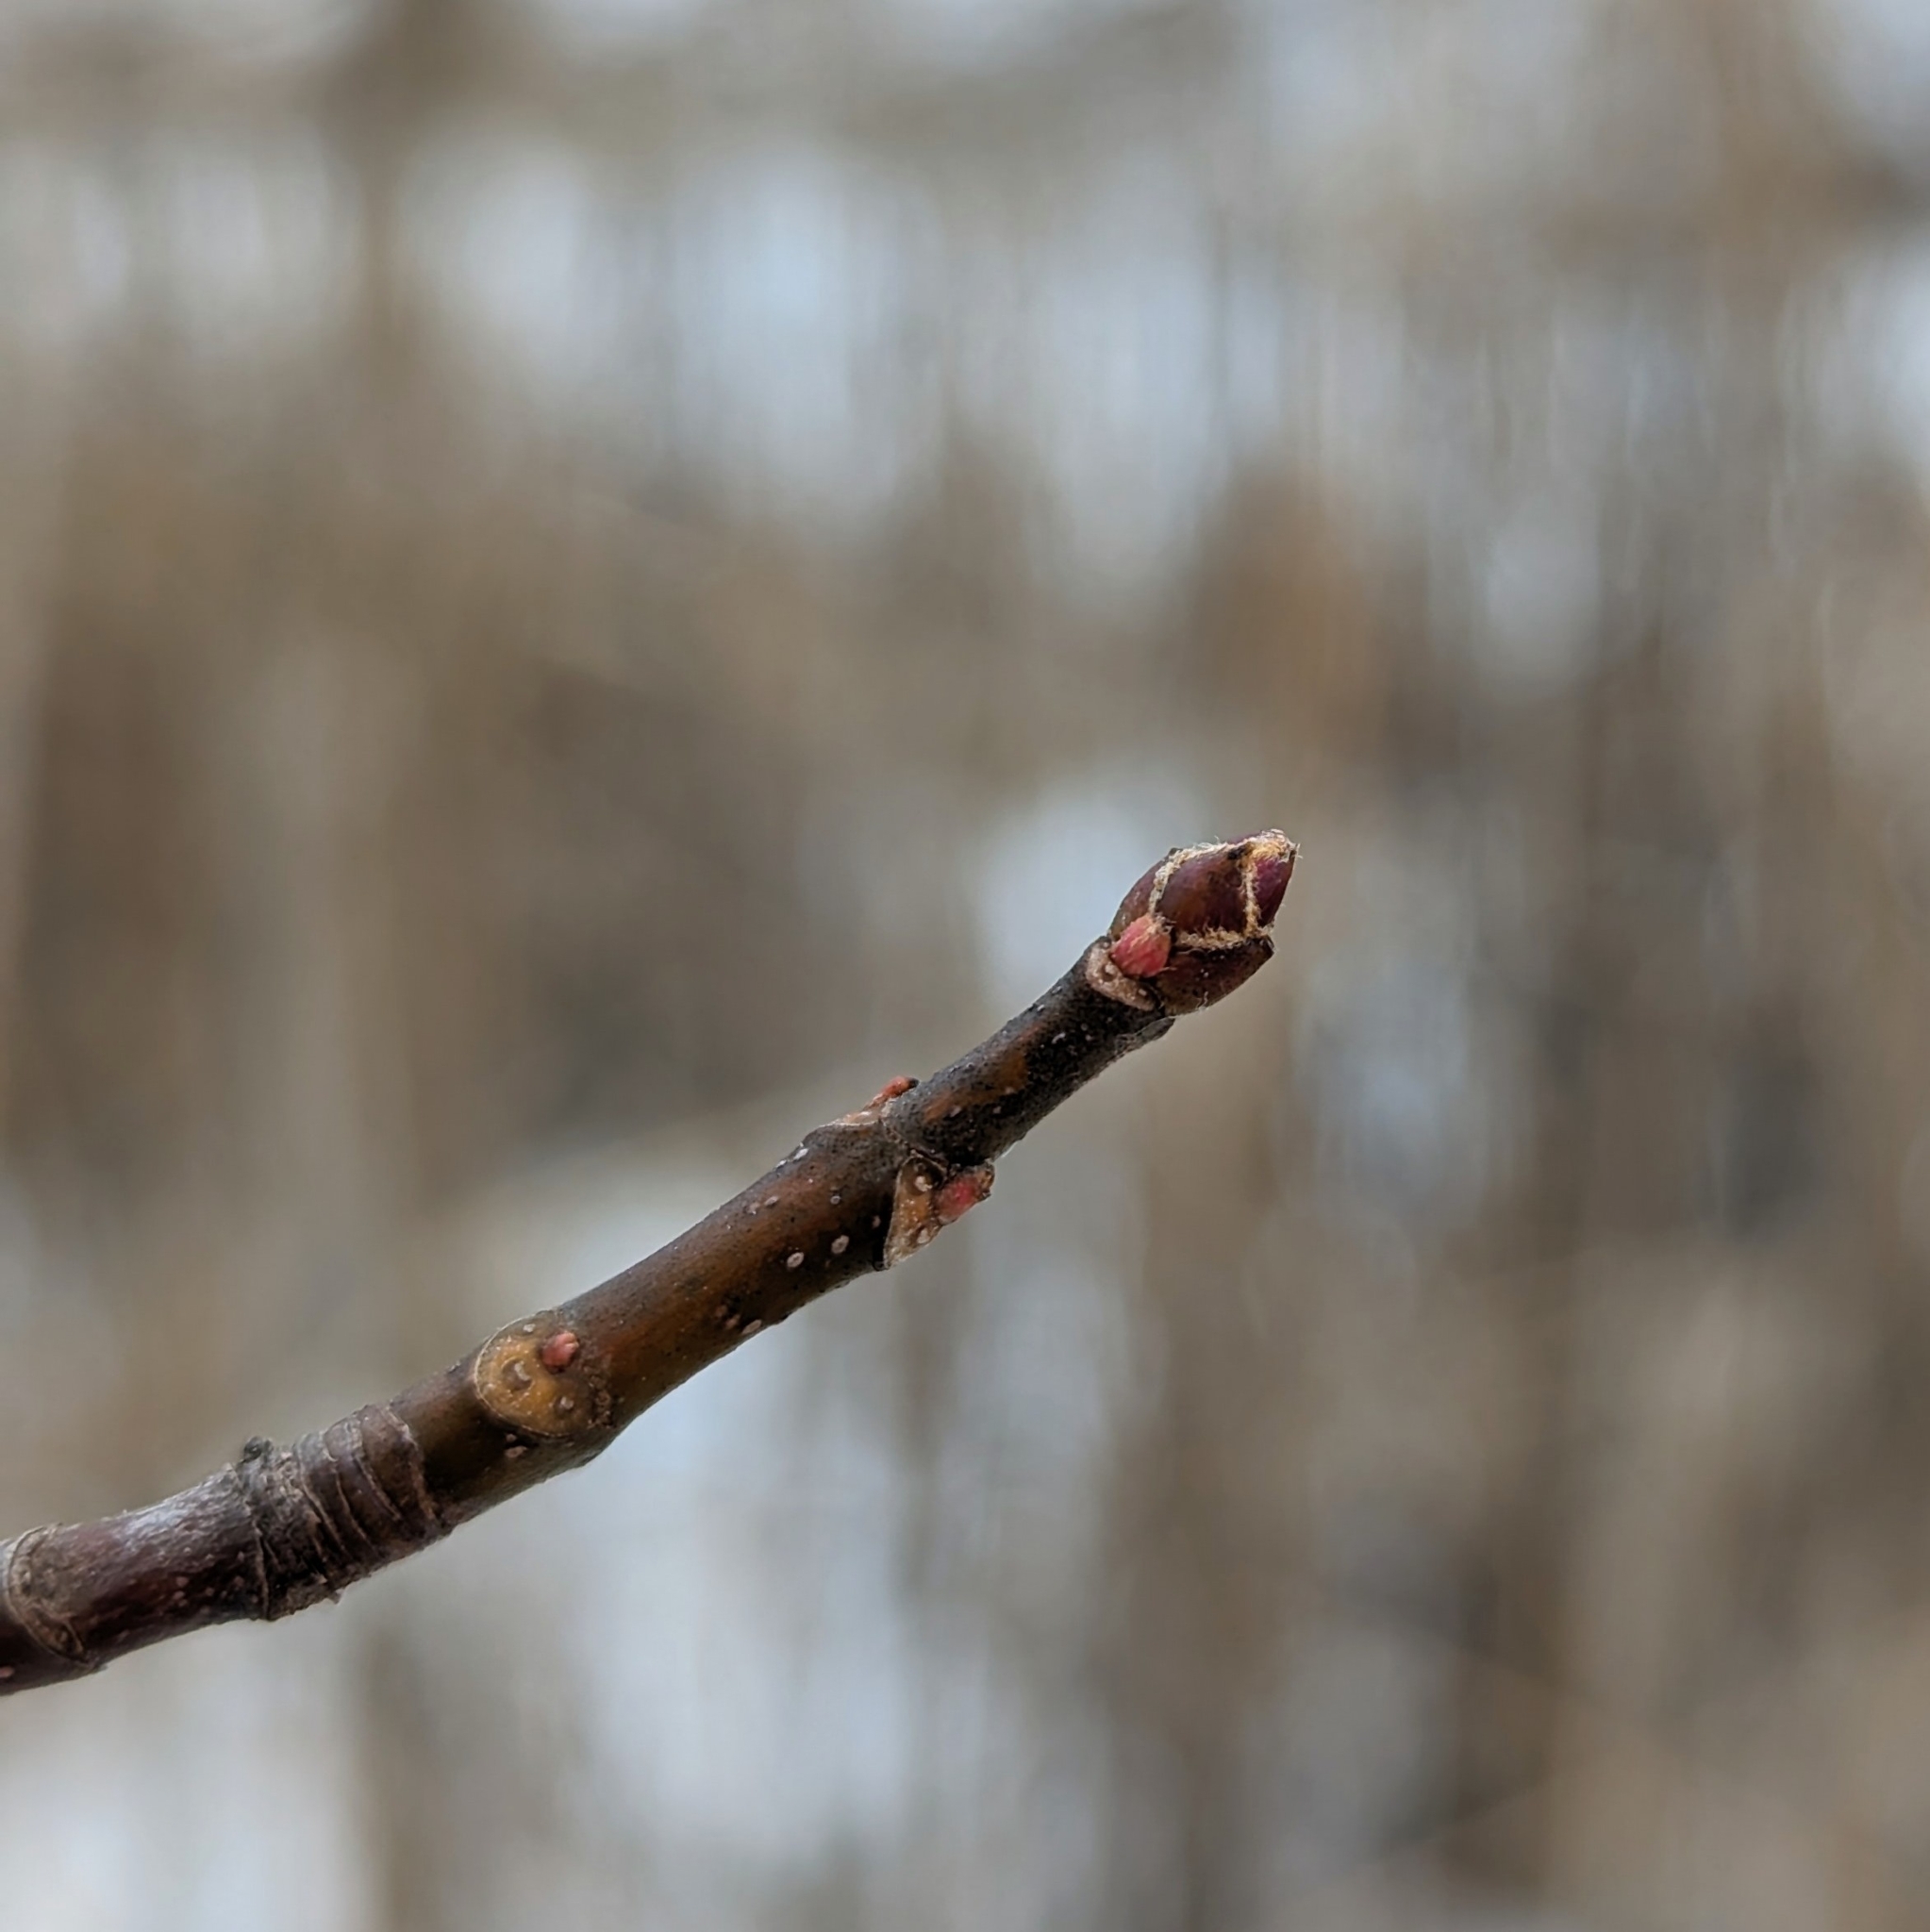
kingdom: Plantae
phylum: Tracheophyta
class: Magnoliopsida
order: Gentianales
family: Rubiaceae
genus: Rubia
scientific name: Rubia
